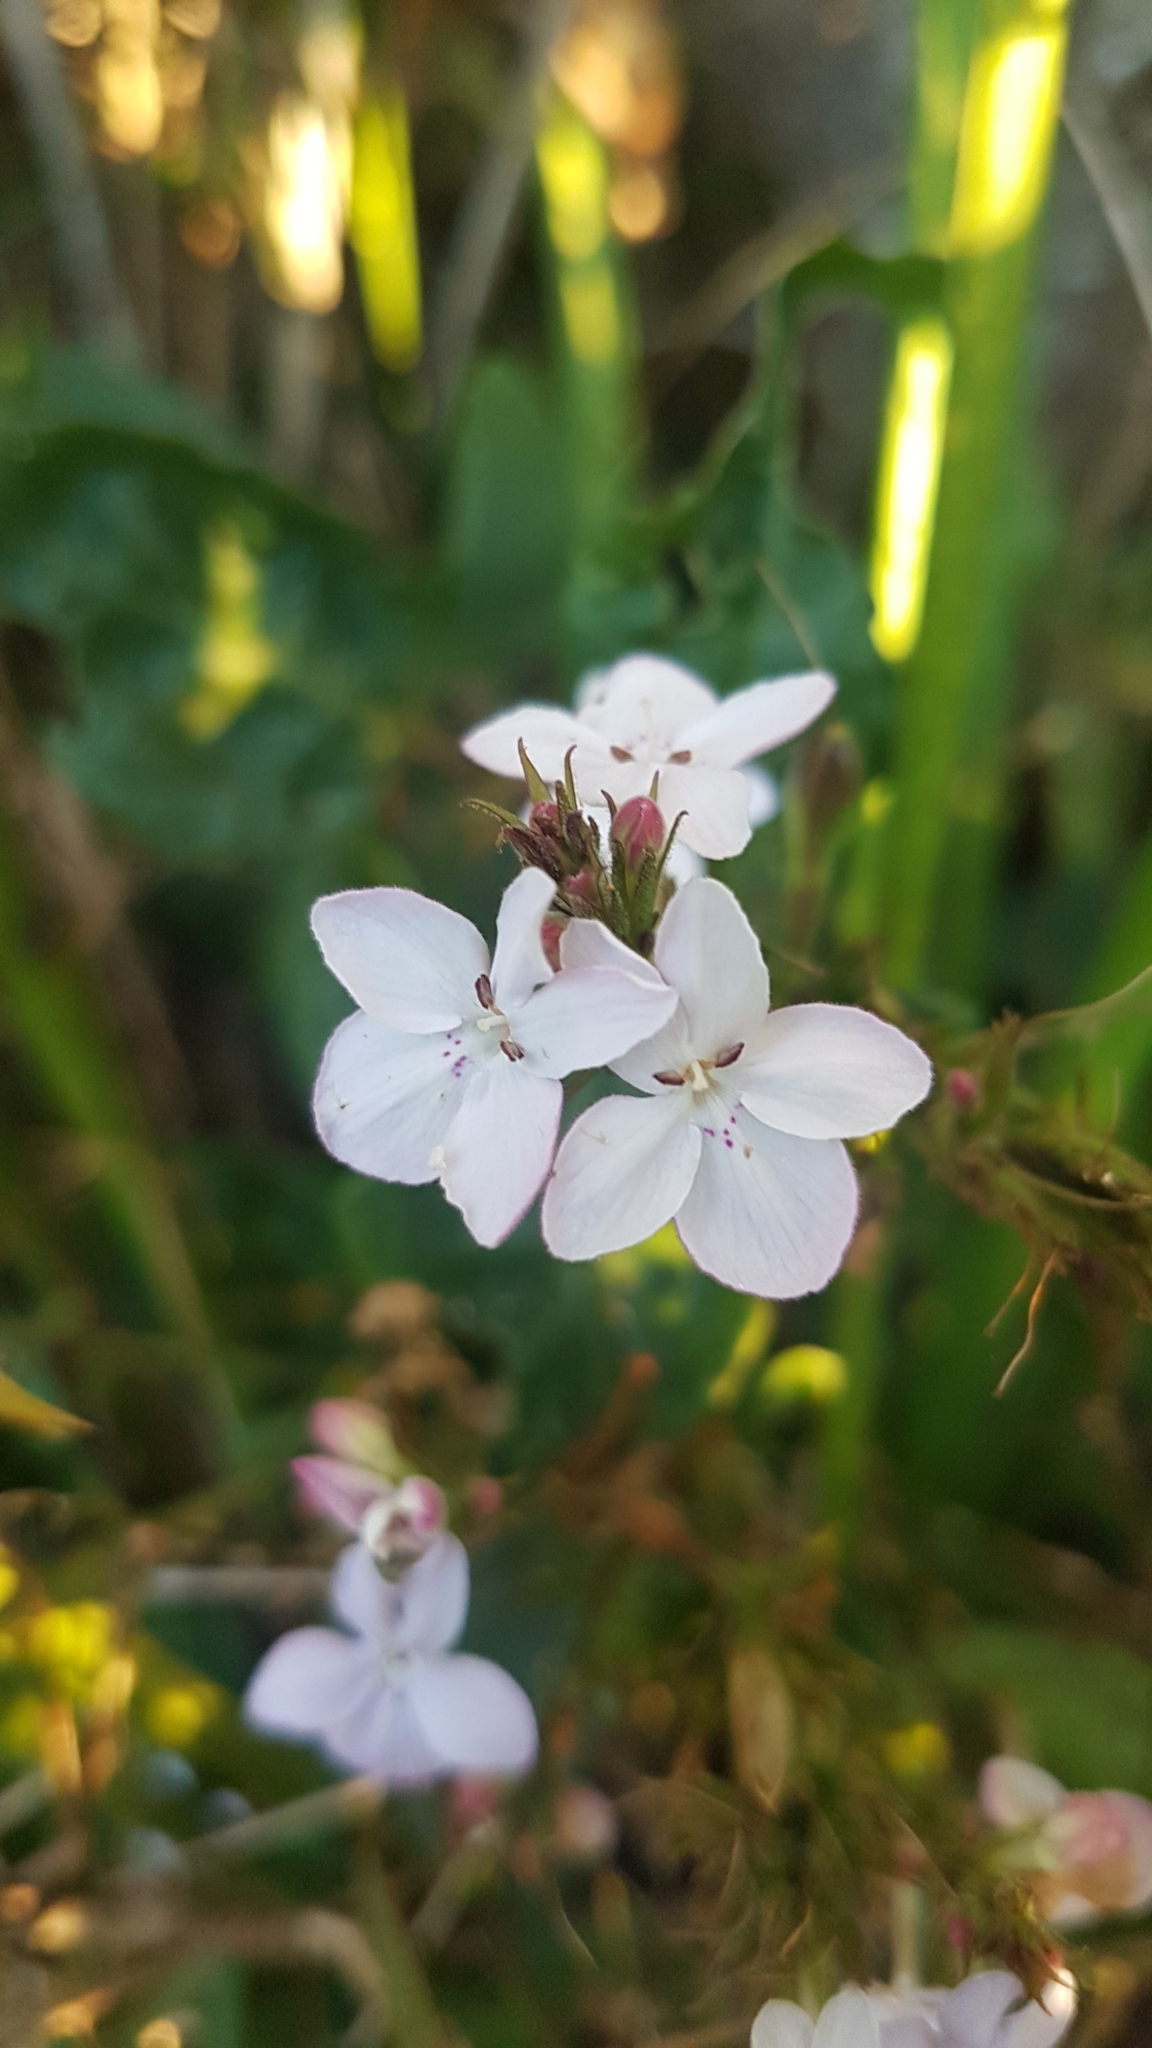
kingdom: Plantae
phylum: Tracheophyta
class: Magnoliopsida
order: Lamiales
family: Acanthaceae
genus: Pseuderanthemum
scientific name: Pseuderanthemum variabile
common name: Night and afternoon
